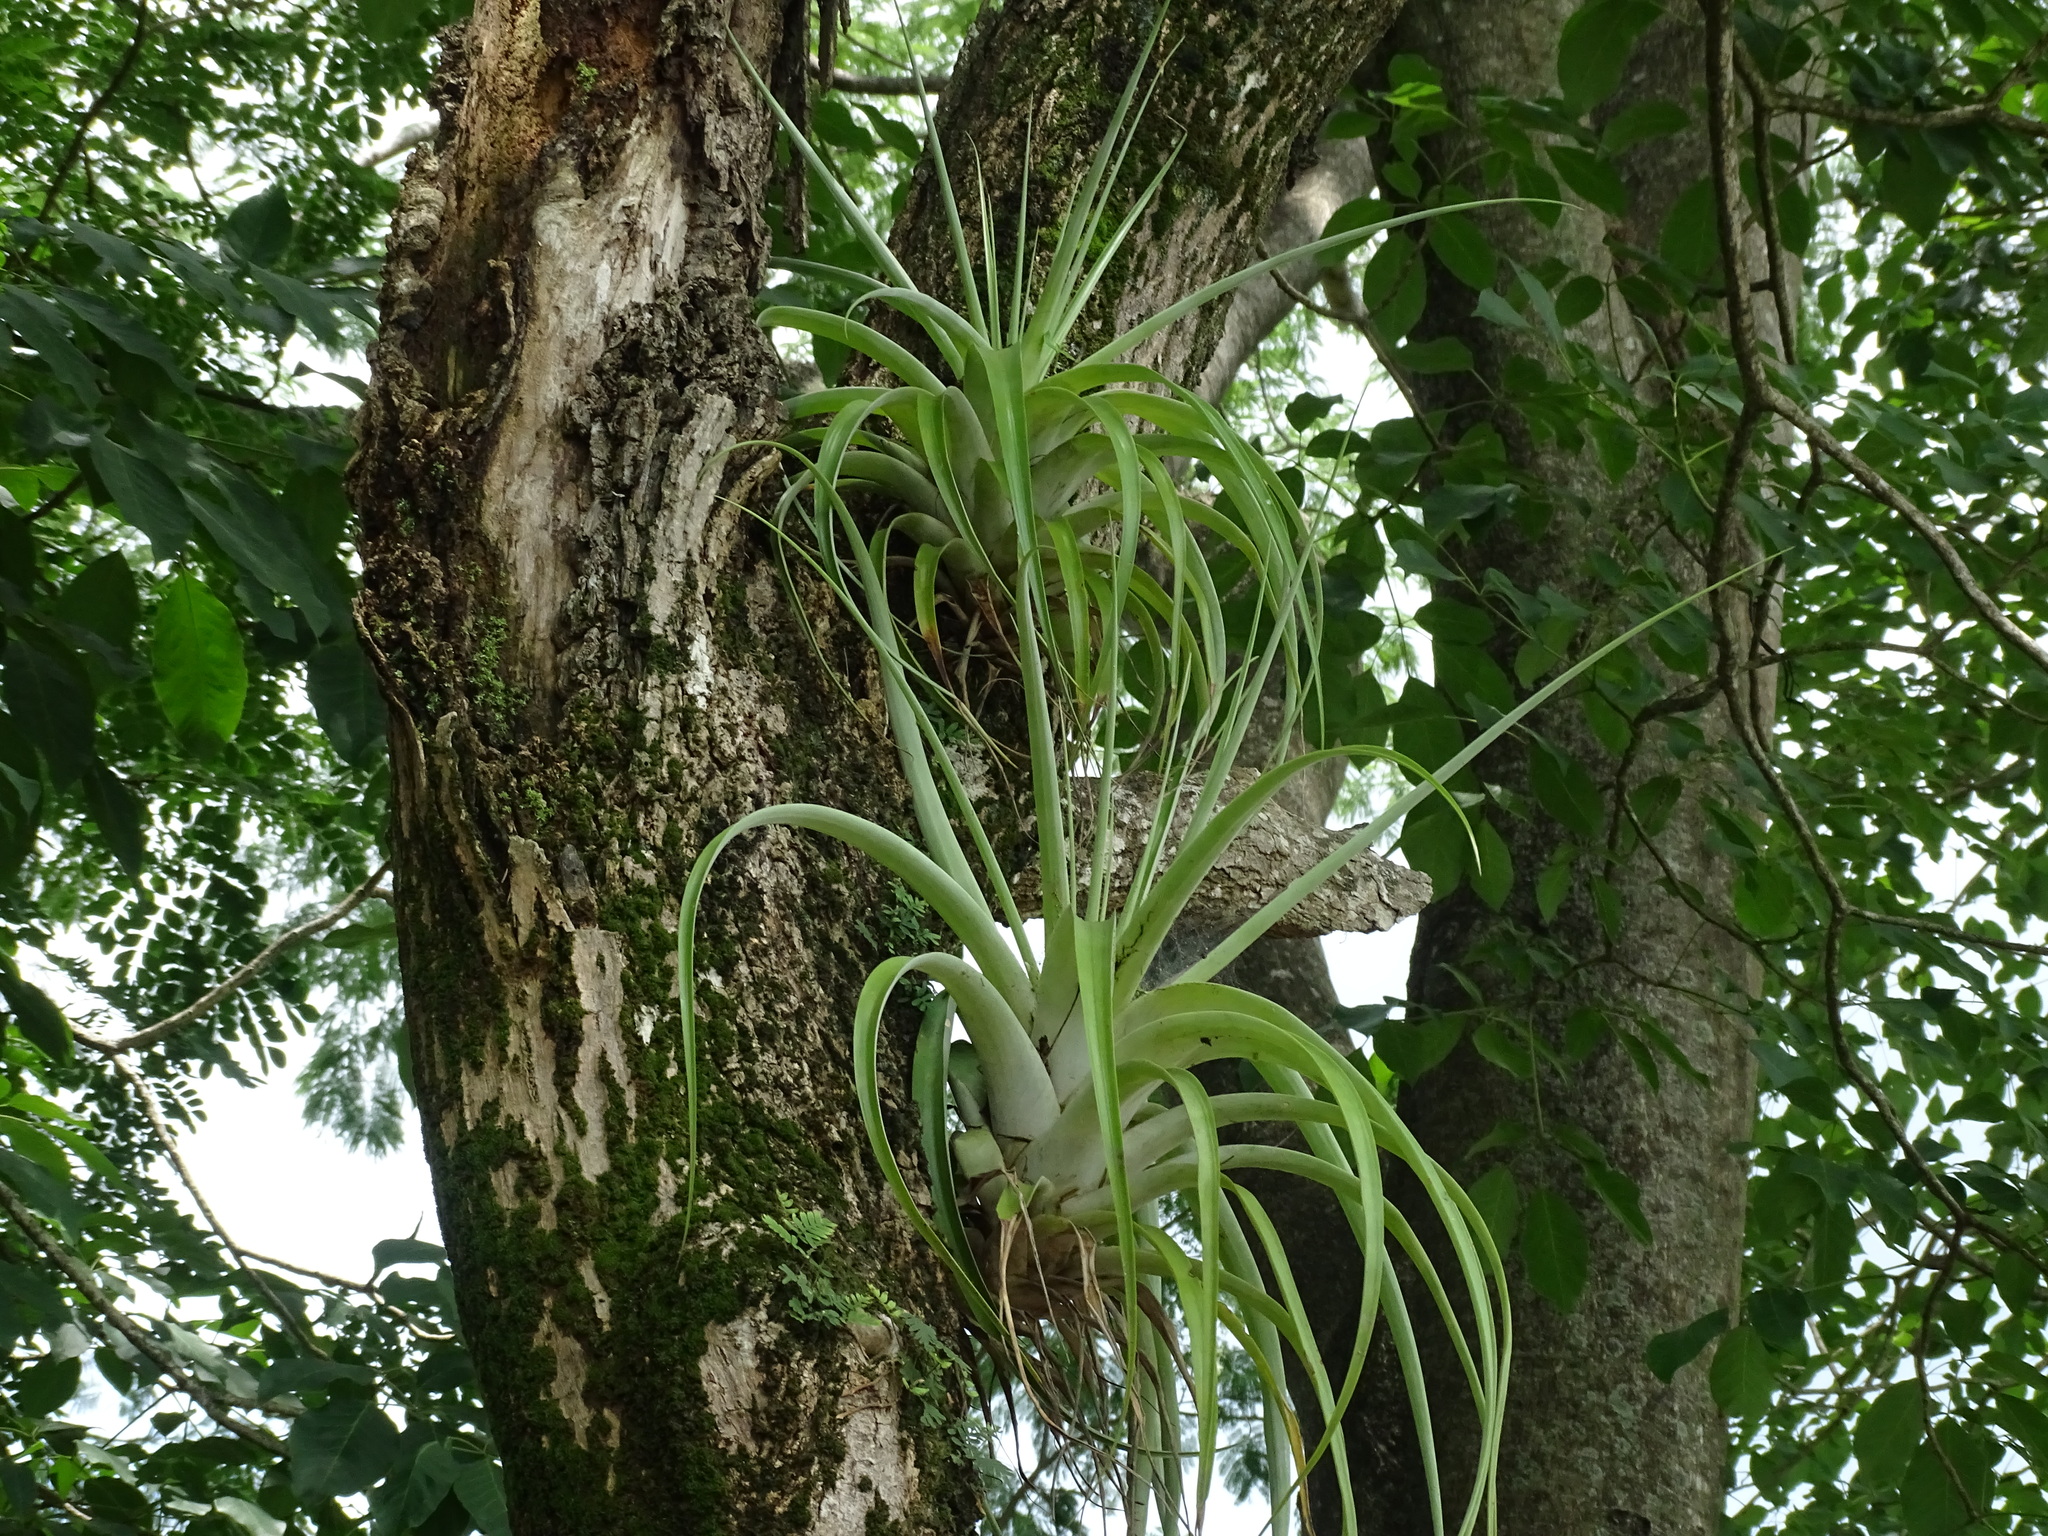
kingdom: Plantae
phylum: Tracheophyta
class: Liliopsida
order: Poales
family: Bromeliaceae
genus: Tillandsia
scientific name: Tillandsia utriculata
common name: Wild pine
